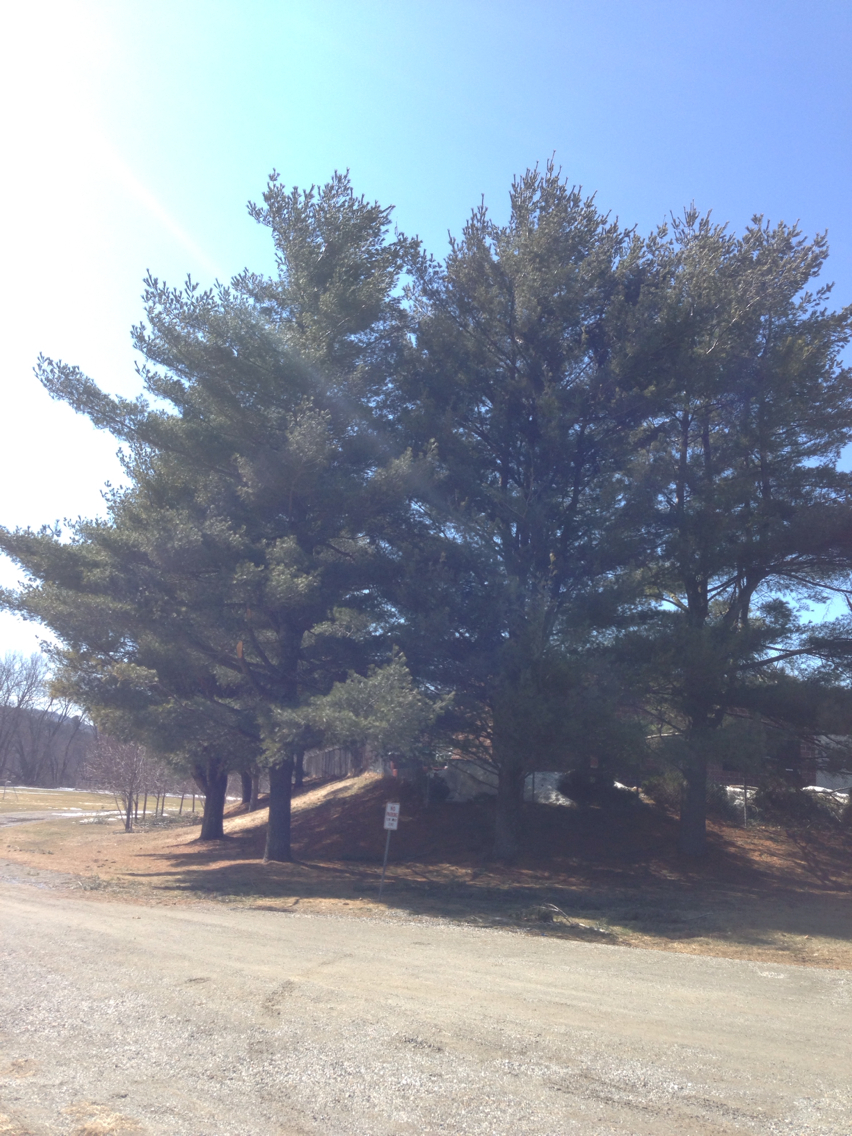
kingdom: Plantae
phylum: Tracheophyta
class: Pinopsida
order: Pinales
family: Pinaceae
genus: Pinus
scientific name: Pinus strobus
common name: Weymouth pine
